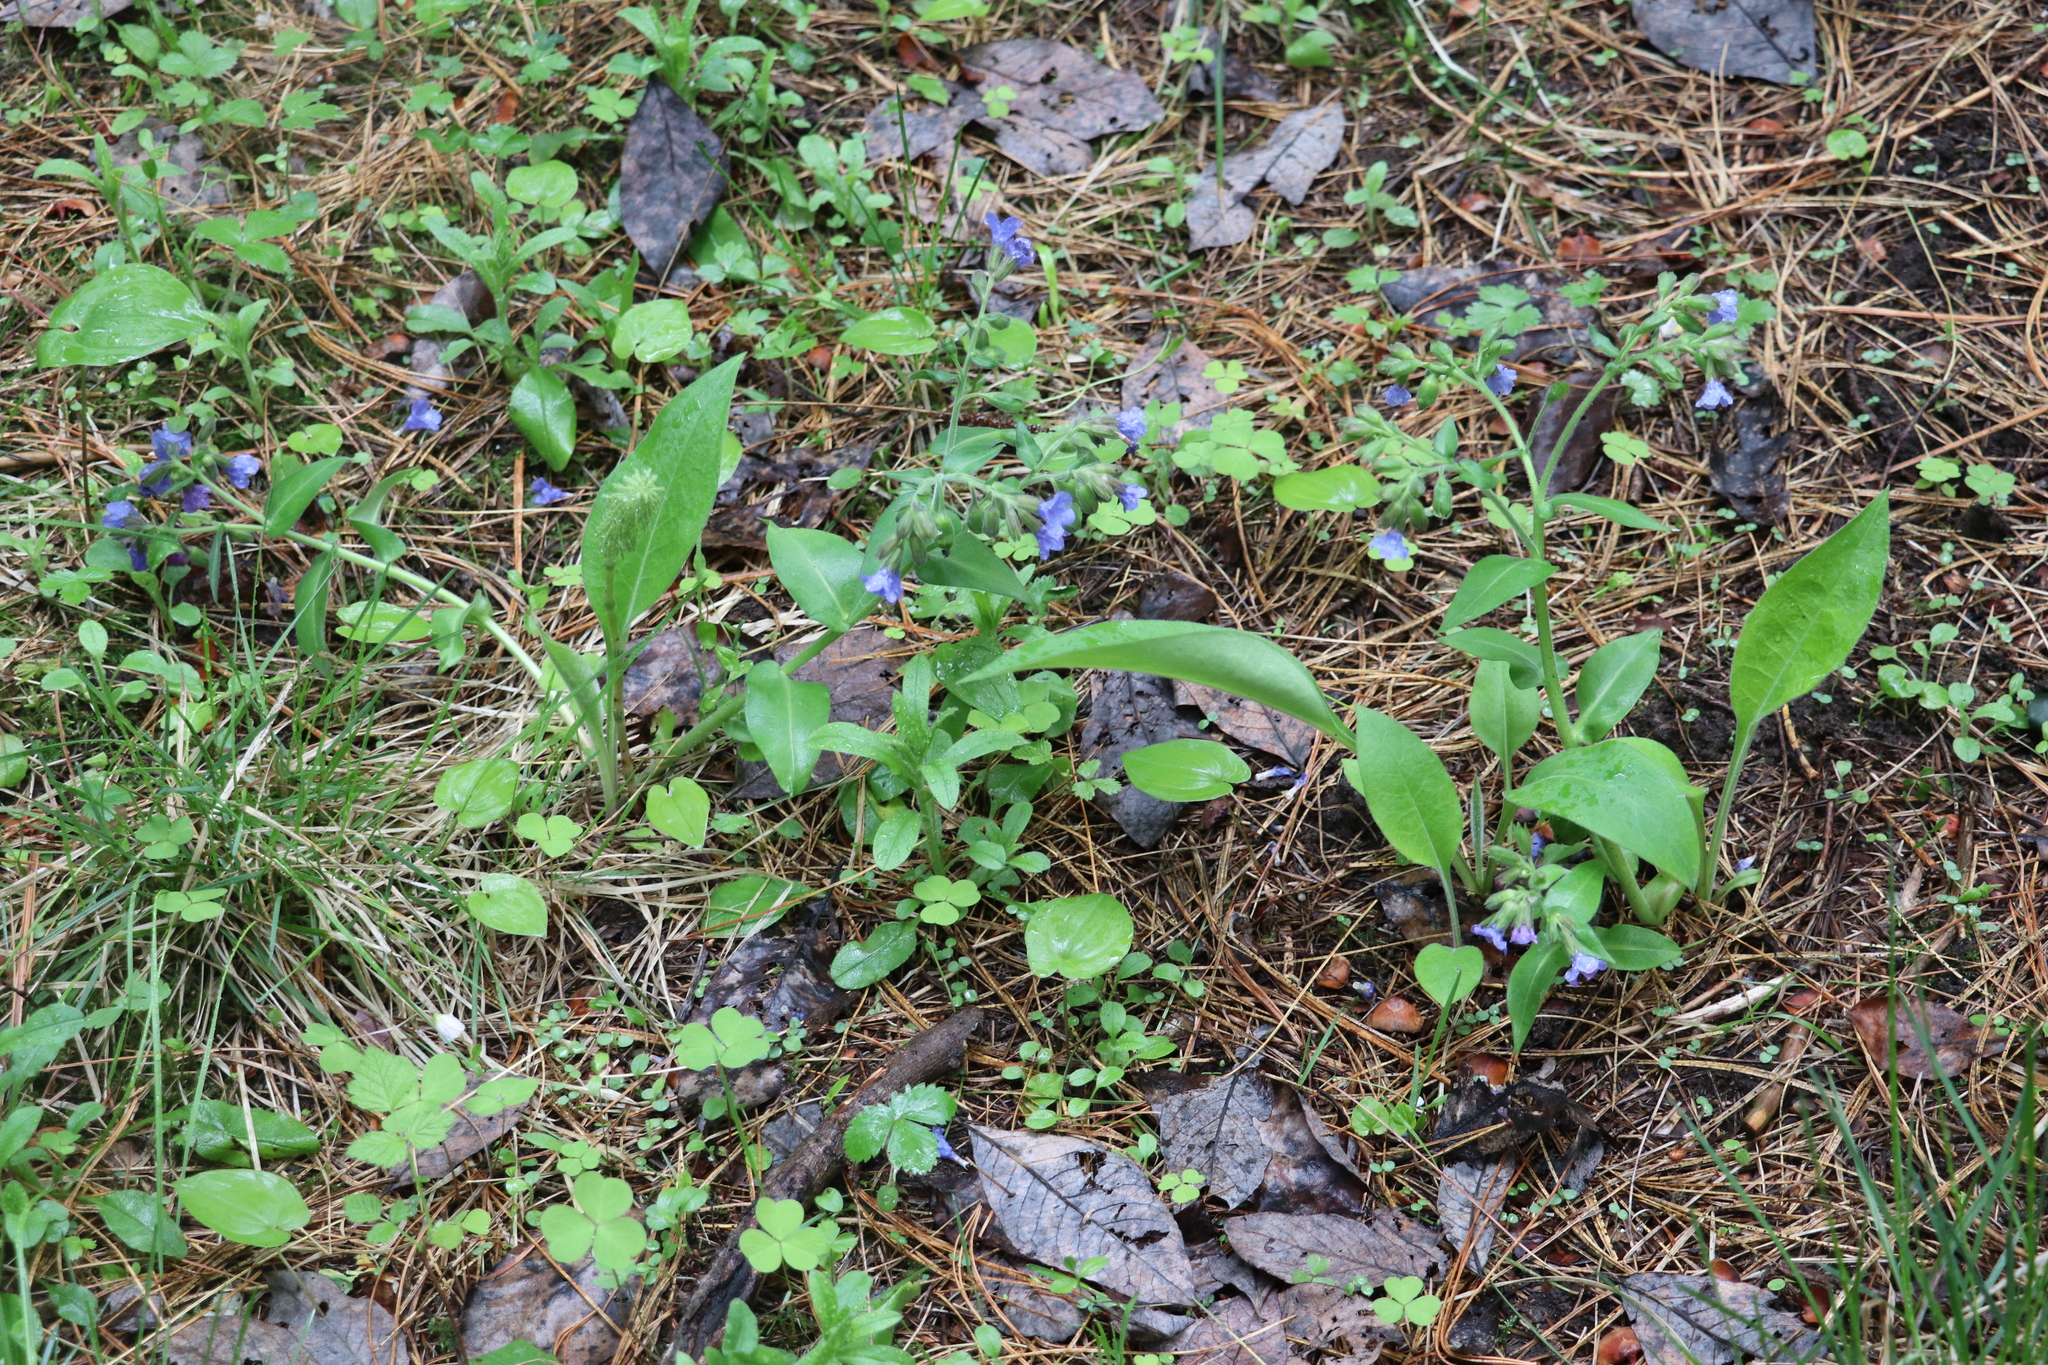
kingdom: Plantae
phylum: Tracheophyta
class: Magnoliopsida
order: Boraginales
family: Boraginaceae
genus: Pulmonaria
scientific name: Pulmonaria mollis
